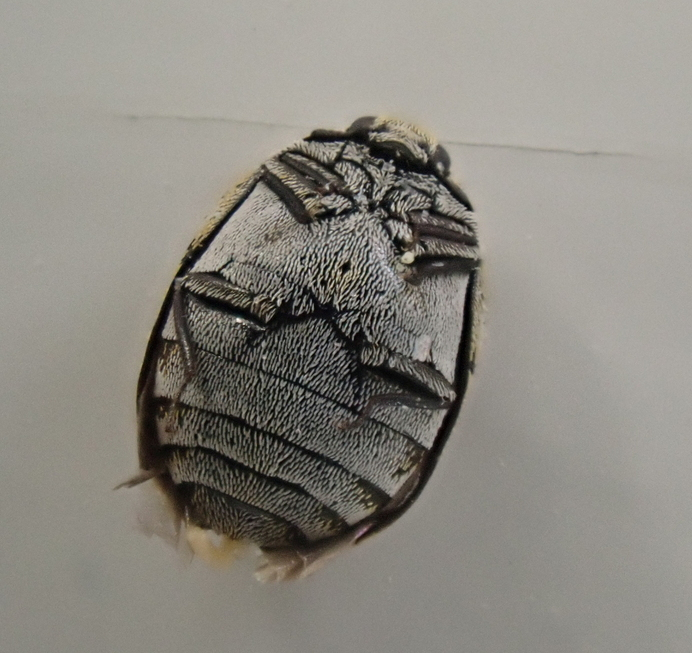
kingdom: Animalia
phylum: Arthropoda
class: Insecta
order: Coleoptera
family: Dermestidae
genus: Anthrenus
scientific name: Anthrenus verbasci
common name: Varied carpet beetle
